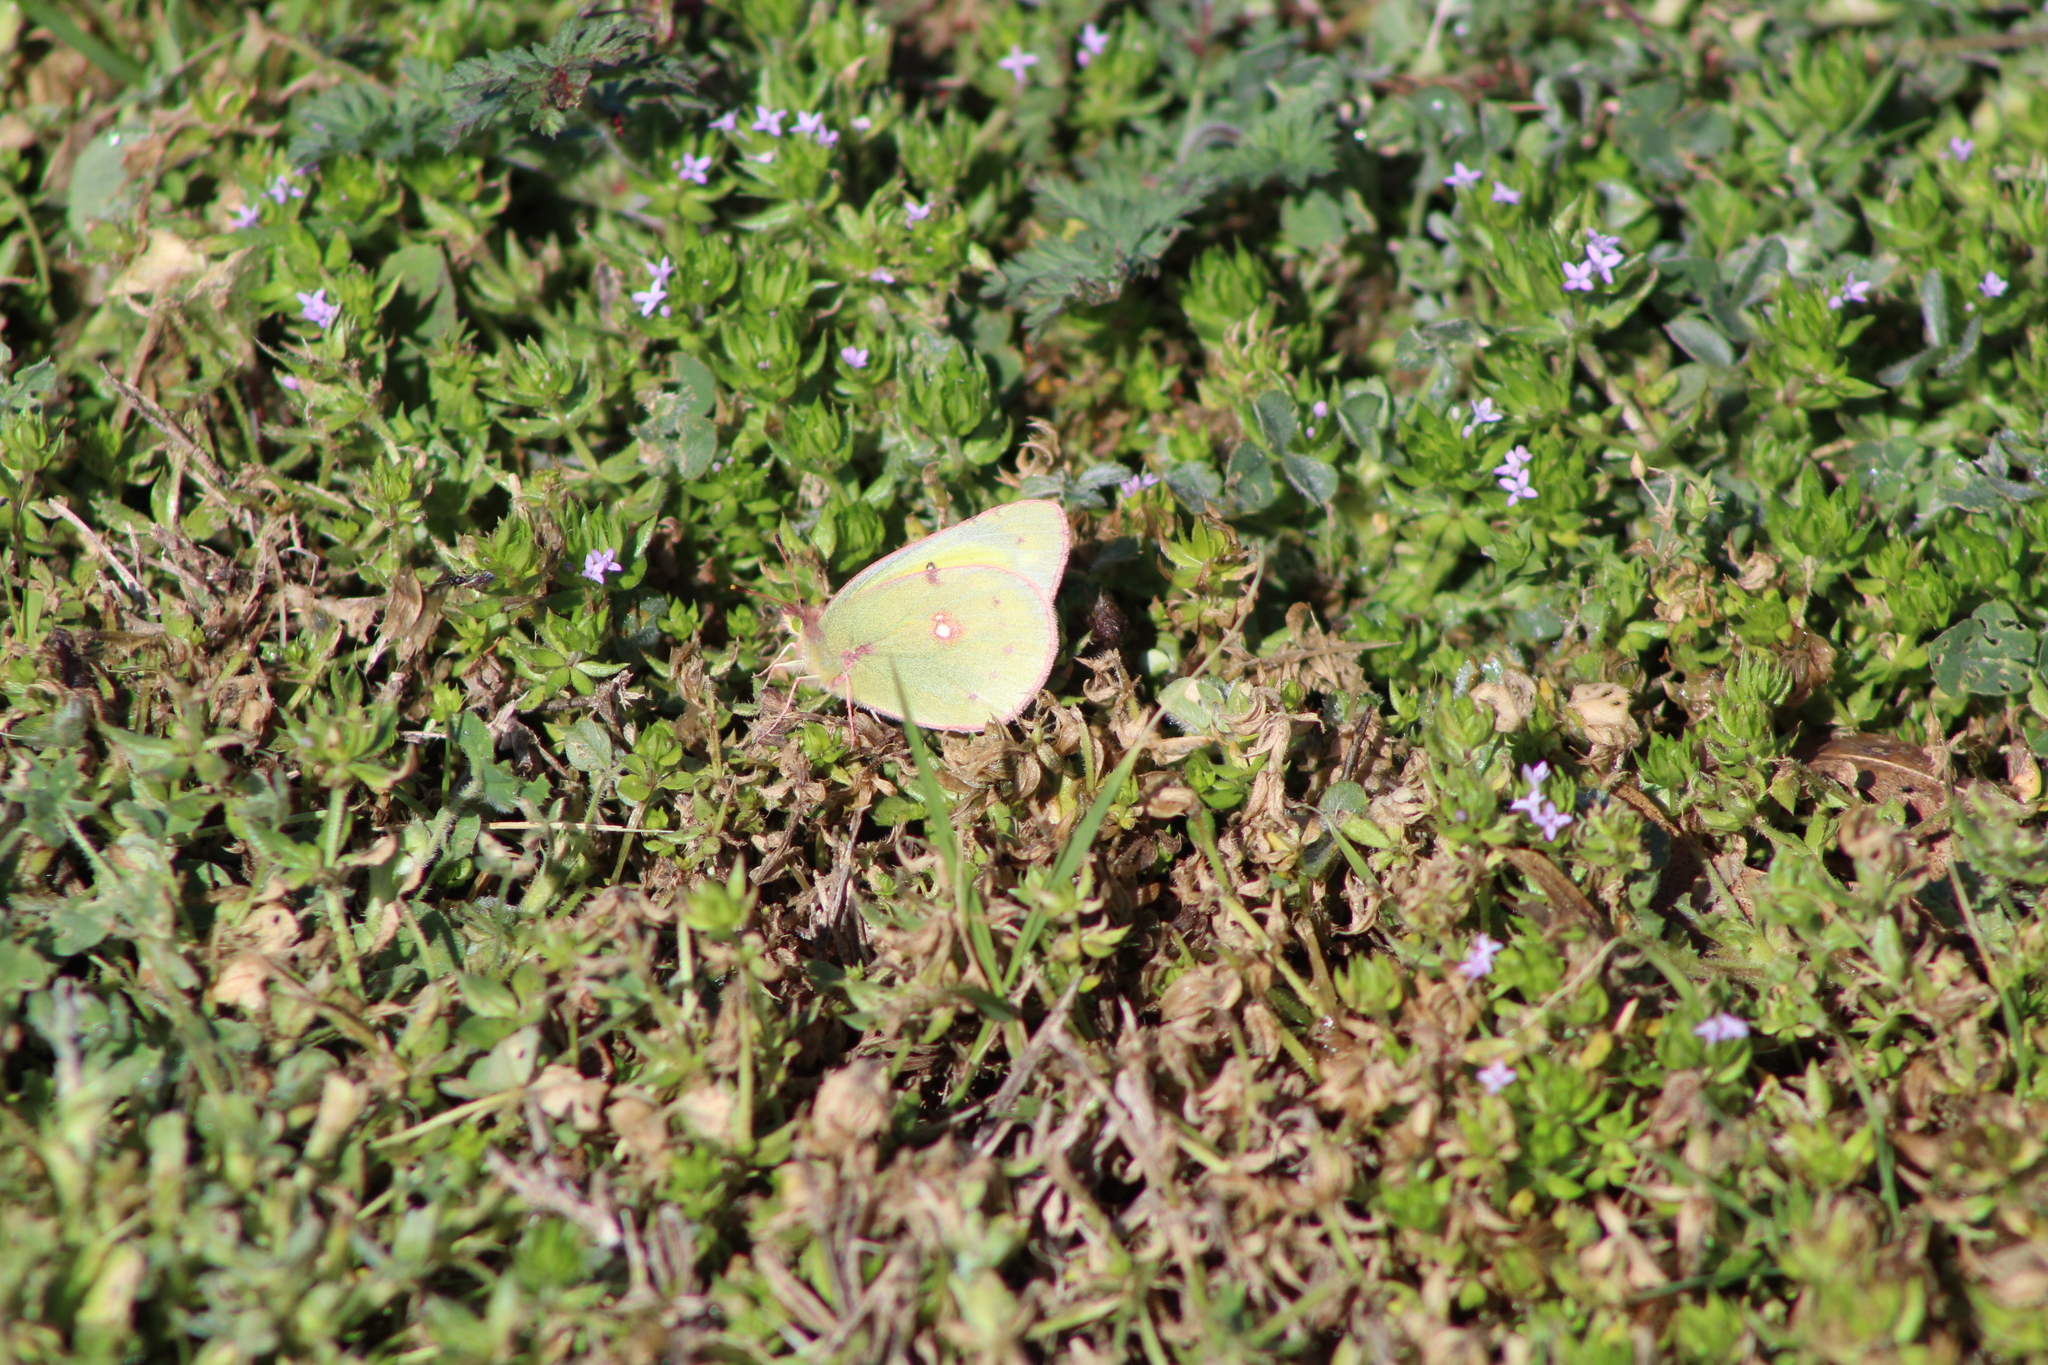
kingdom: Animalia
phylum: Arthropoda
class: Insecta
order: Lepidoptera
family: Pieridae
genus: Colias
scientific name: Colias eurytheme
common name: Alfalfa butterfly
